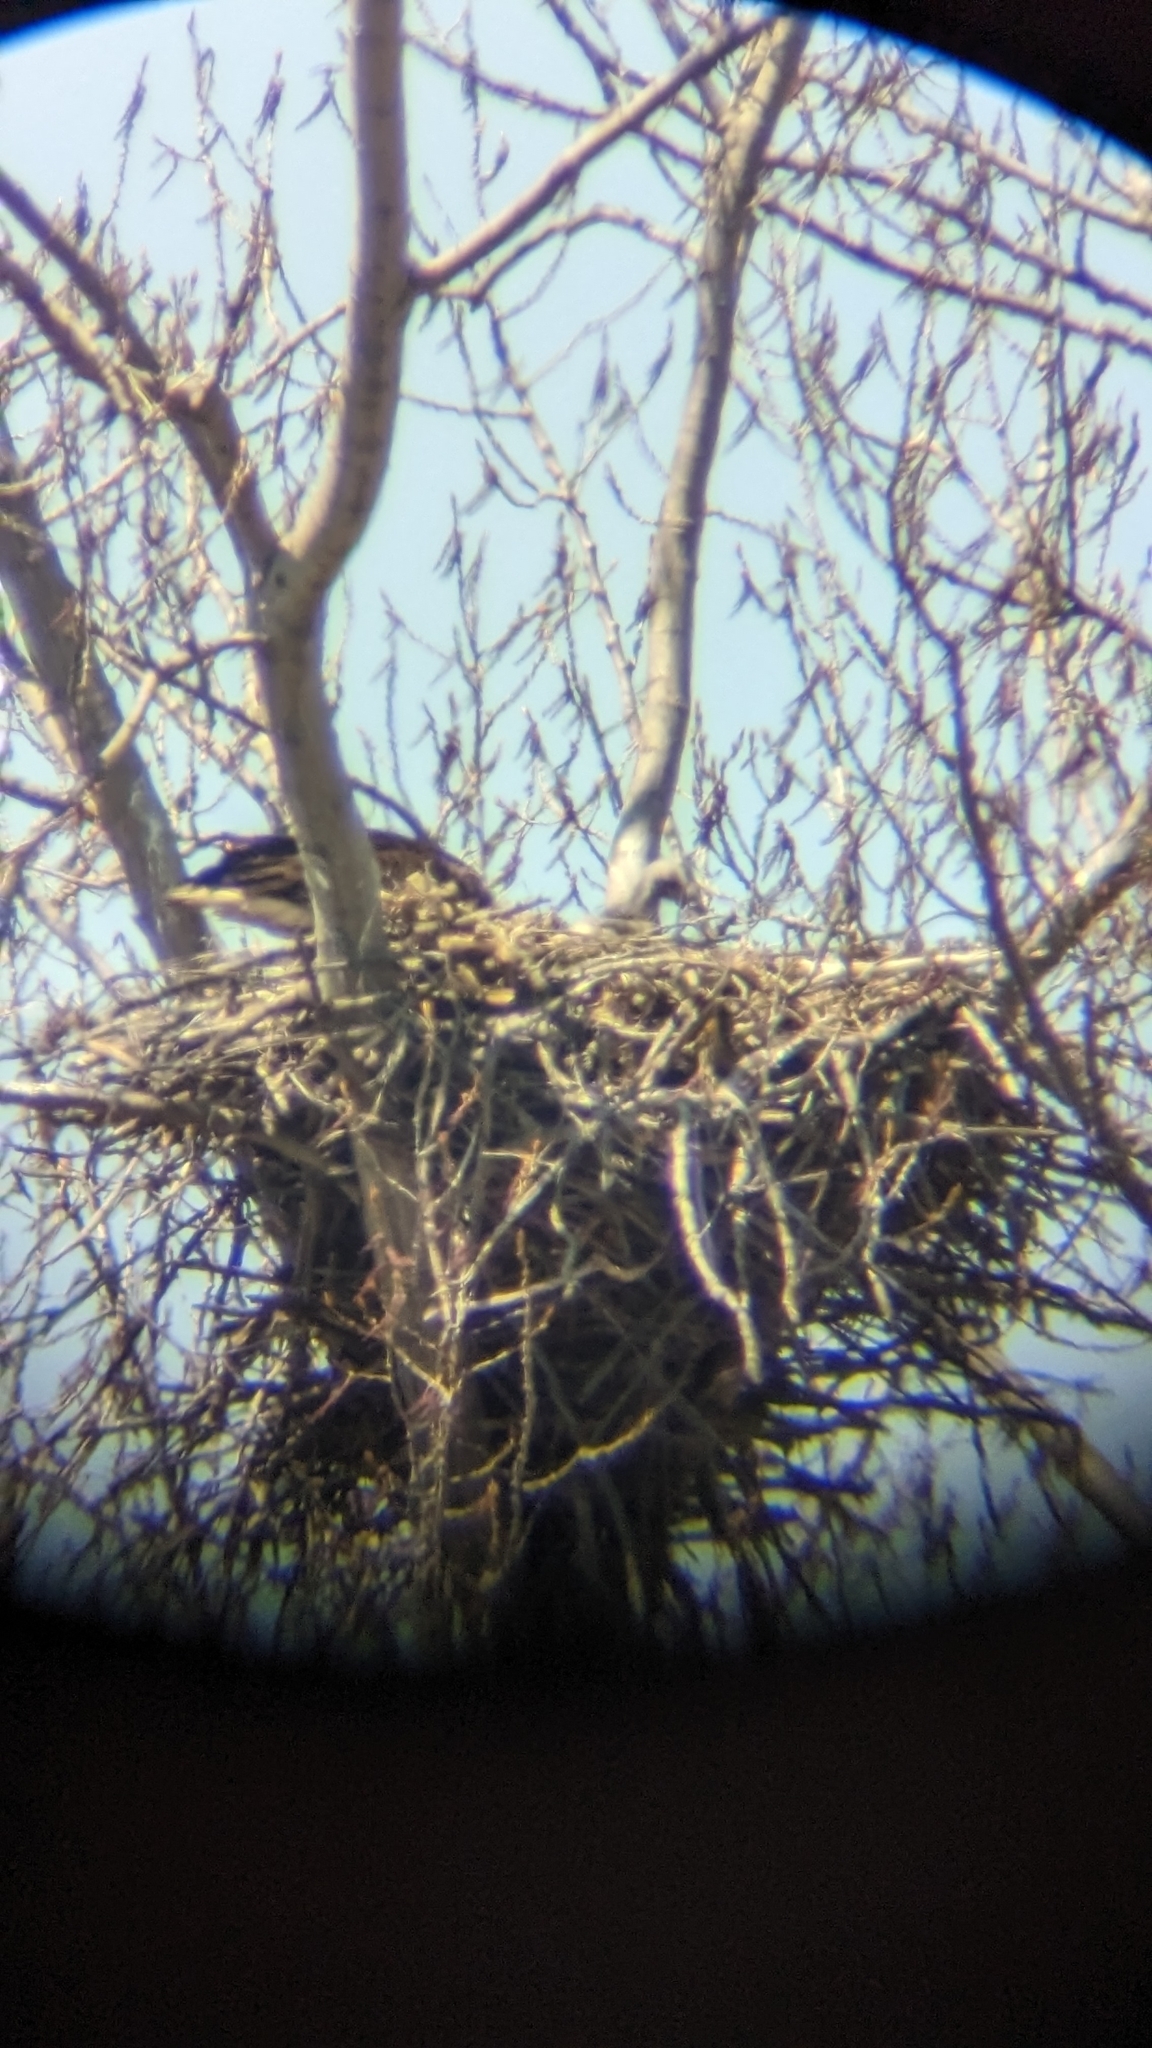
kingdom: Animalia
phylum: Chordata
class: Aves
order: Accipitriformes
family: Accipitridae
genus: Haliaeetus
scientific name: Haliaeetus leucocephalus
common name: Bald eagle
